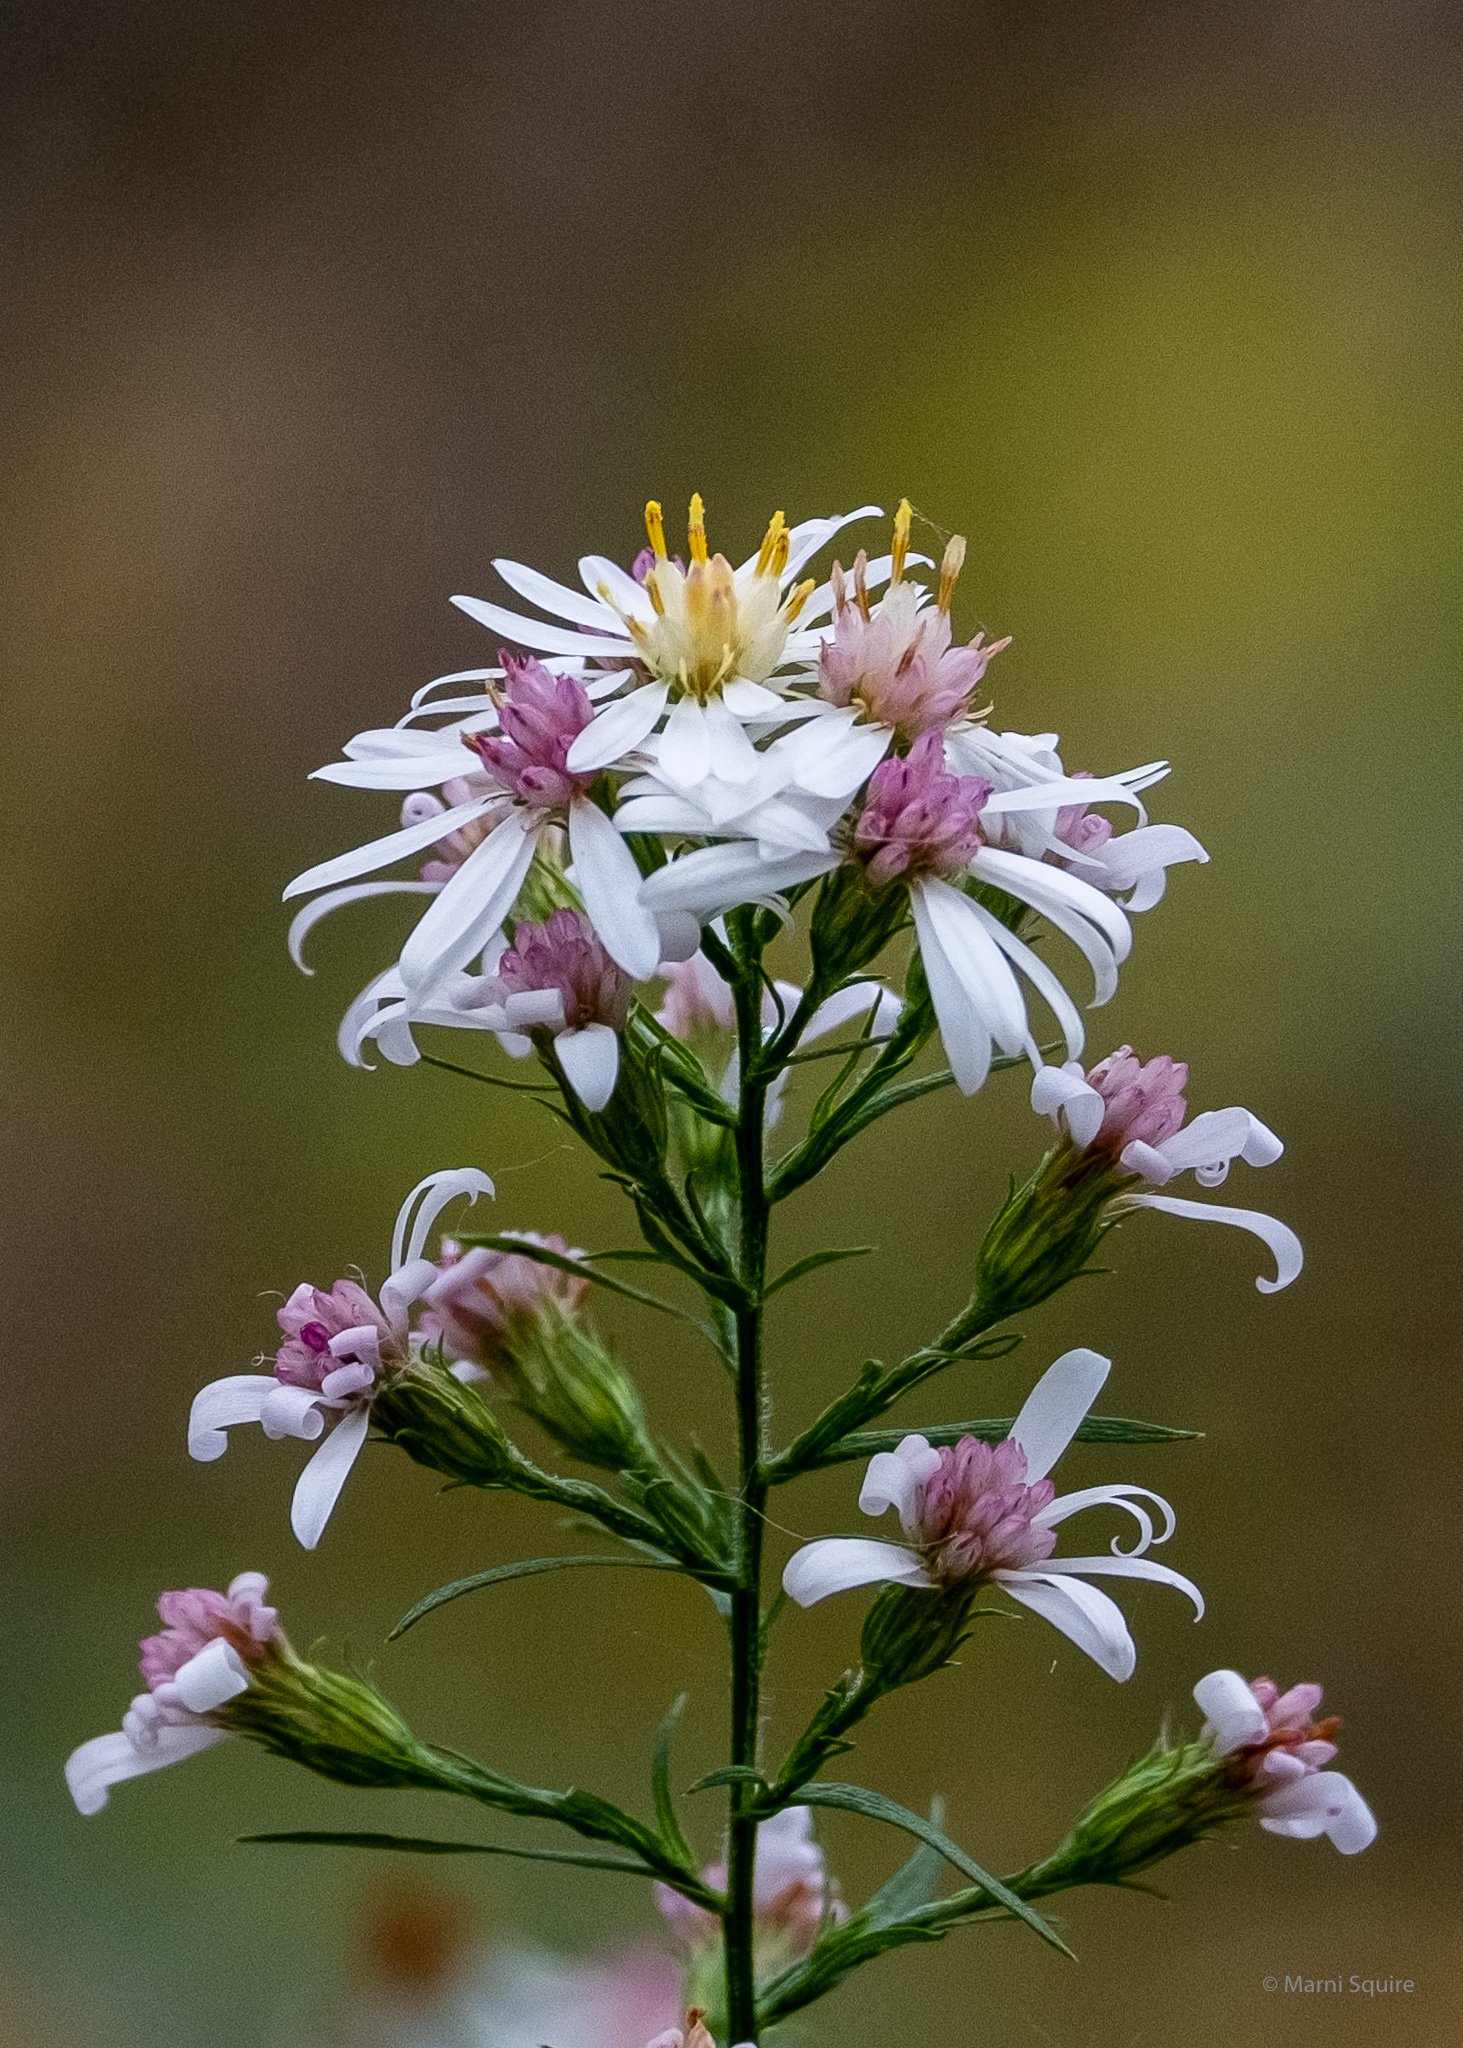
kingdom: Plantae
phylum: Tracheophyta
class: Magnoliopsida
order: Asterales
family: Asteraceae
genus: Symphyotrichum
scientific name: Symphyotrichum urophyllum
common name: Arrow-leaved aster
